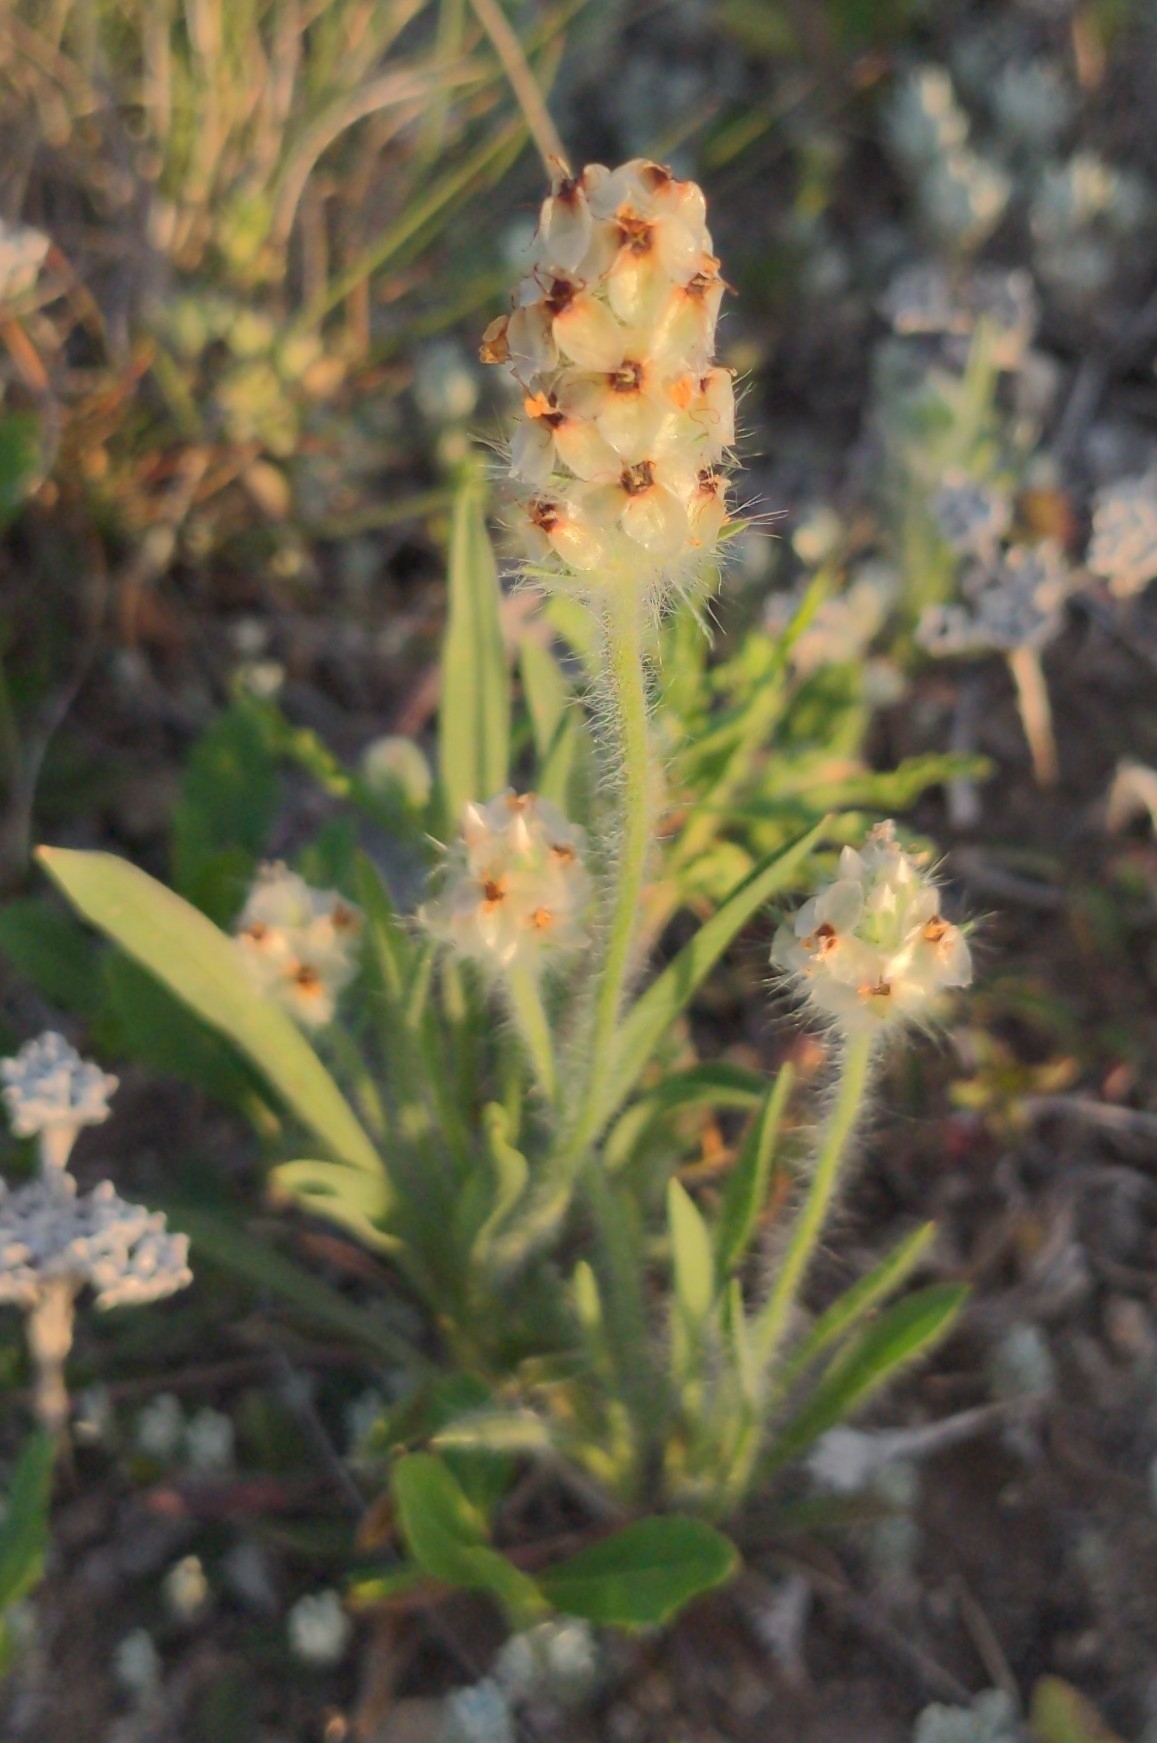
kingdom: Plantae
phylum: Tracheophyta
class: Magnoliopsida
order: Lamiales
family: Plantaginaceae
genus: Plantago
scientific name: Plantago helleri
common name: Heller's plantain
